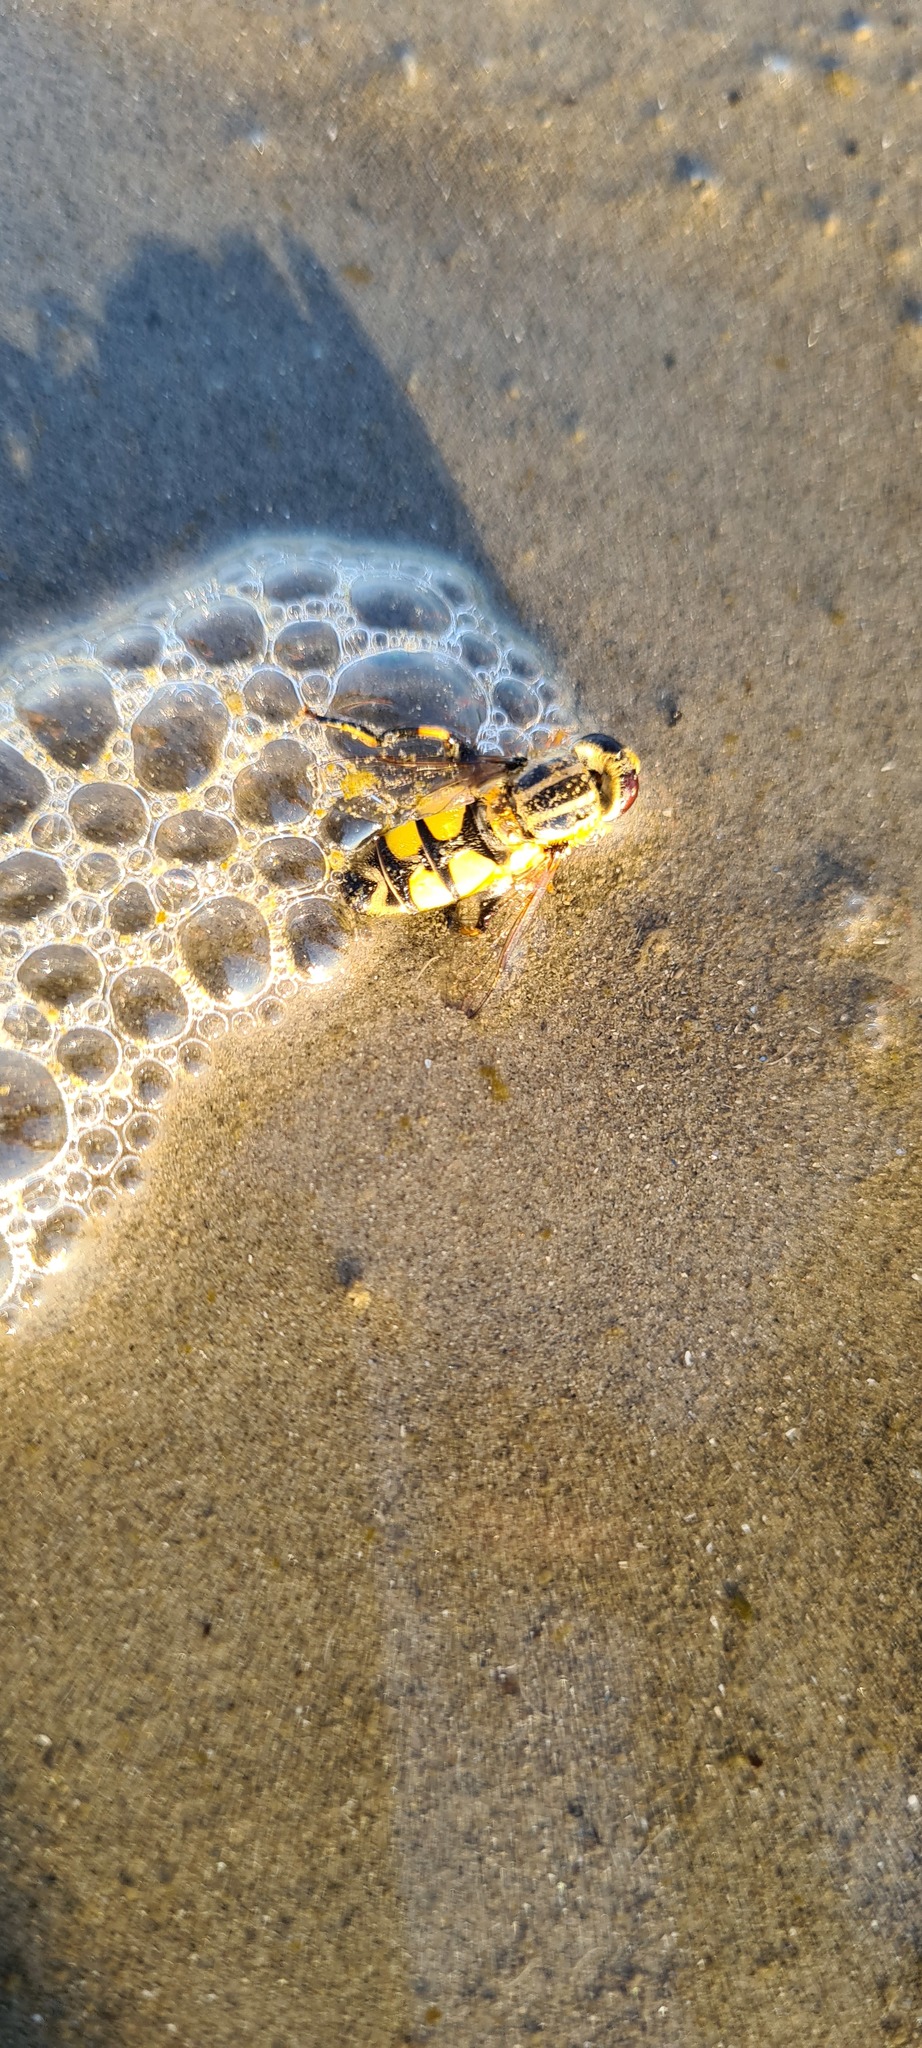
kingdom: Animalia
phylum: Arthropoda
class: Insecta
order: Diptera
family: Syrphidae
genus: Helophilus
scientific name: Helophilus trivittatus
